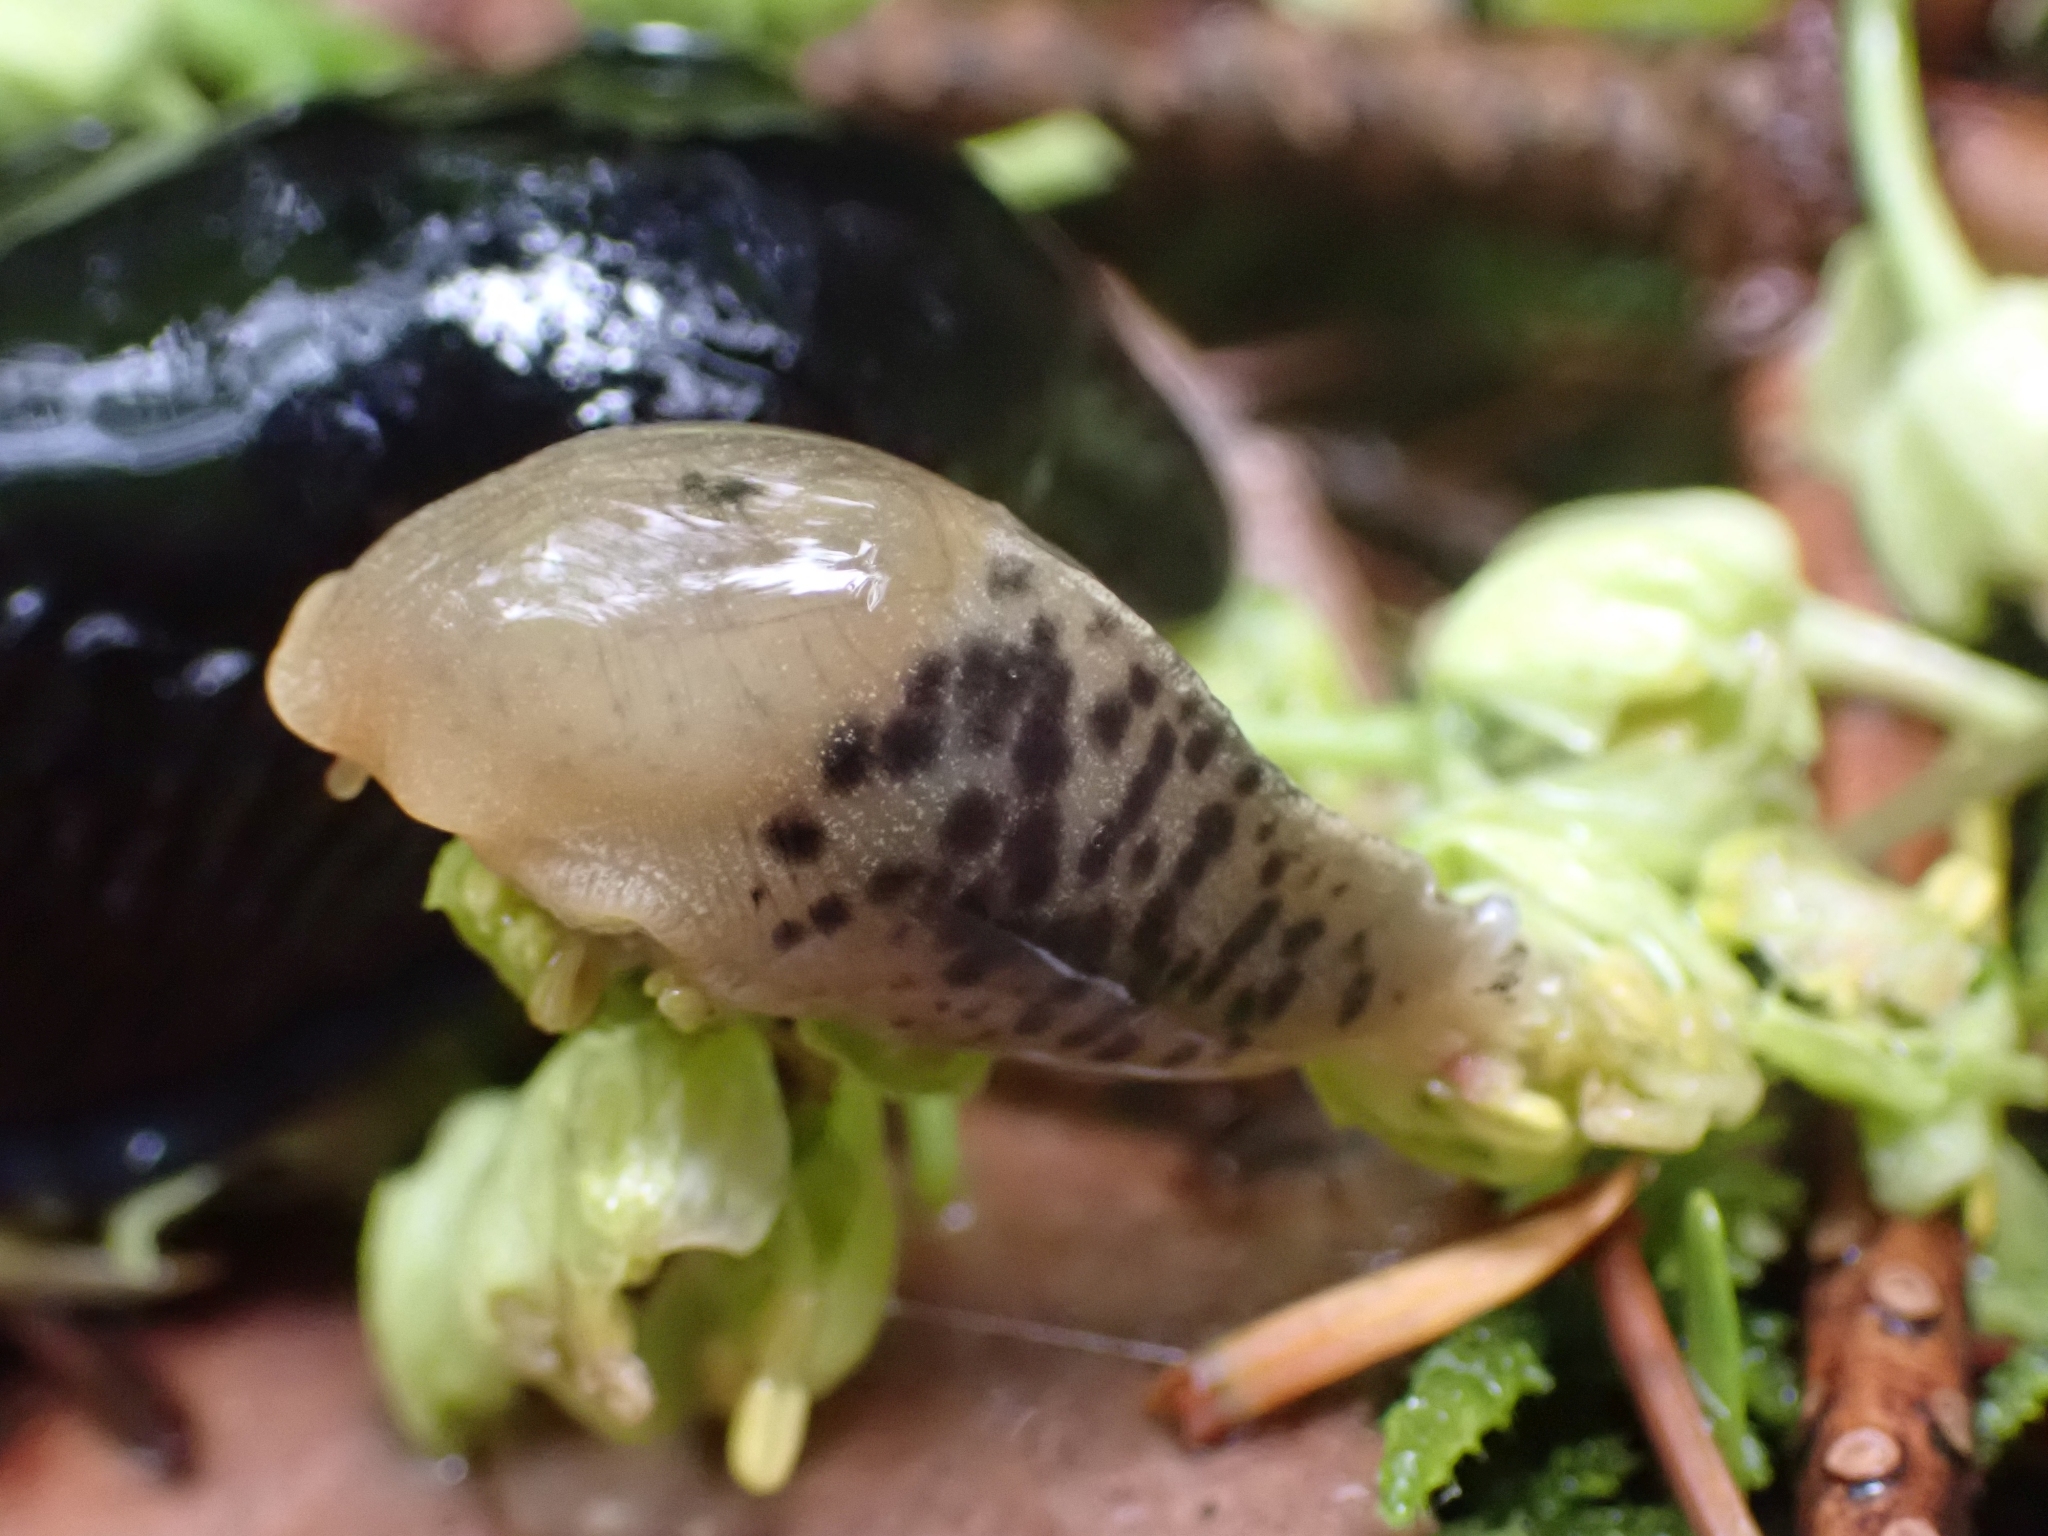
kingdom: Animalia
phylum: Mollusca
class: Gastropoda
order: Stylommatophora
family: Ariolimacidae
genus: Ariolimax
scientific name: Ariolimax columbianus
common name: Pacific banana slug
